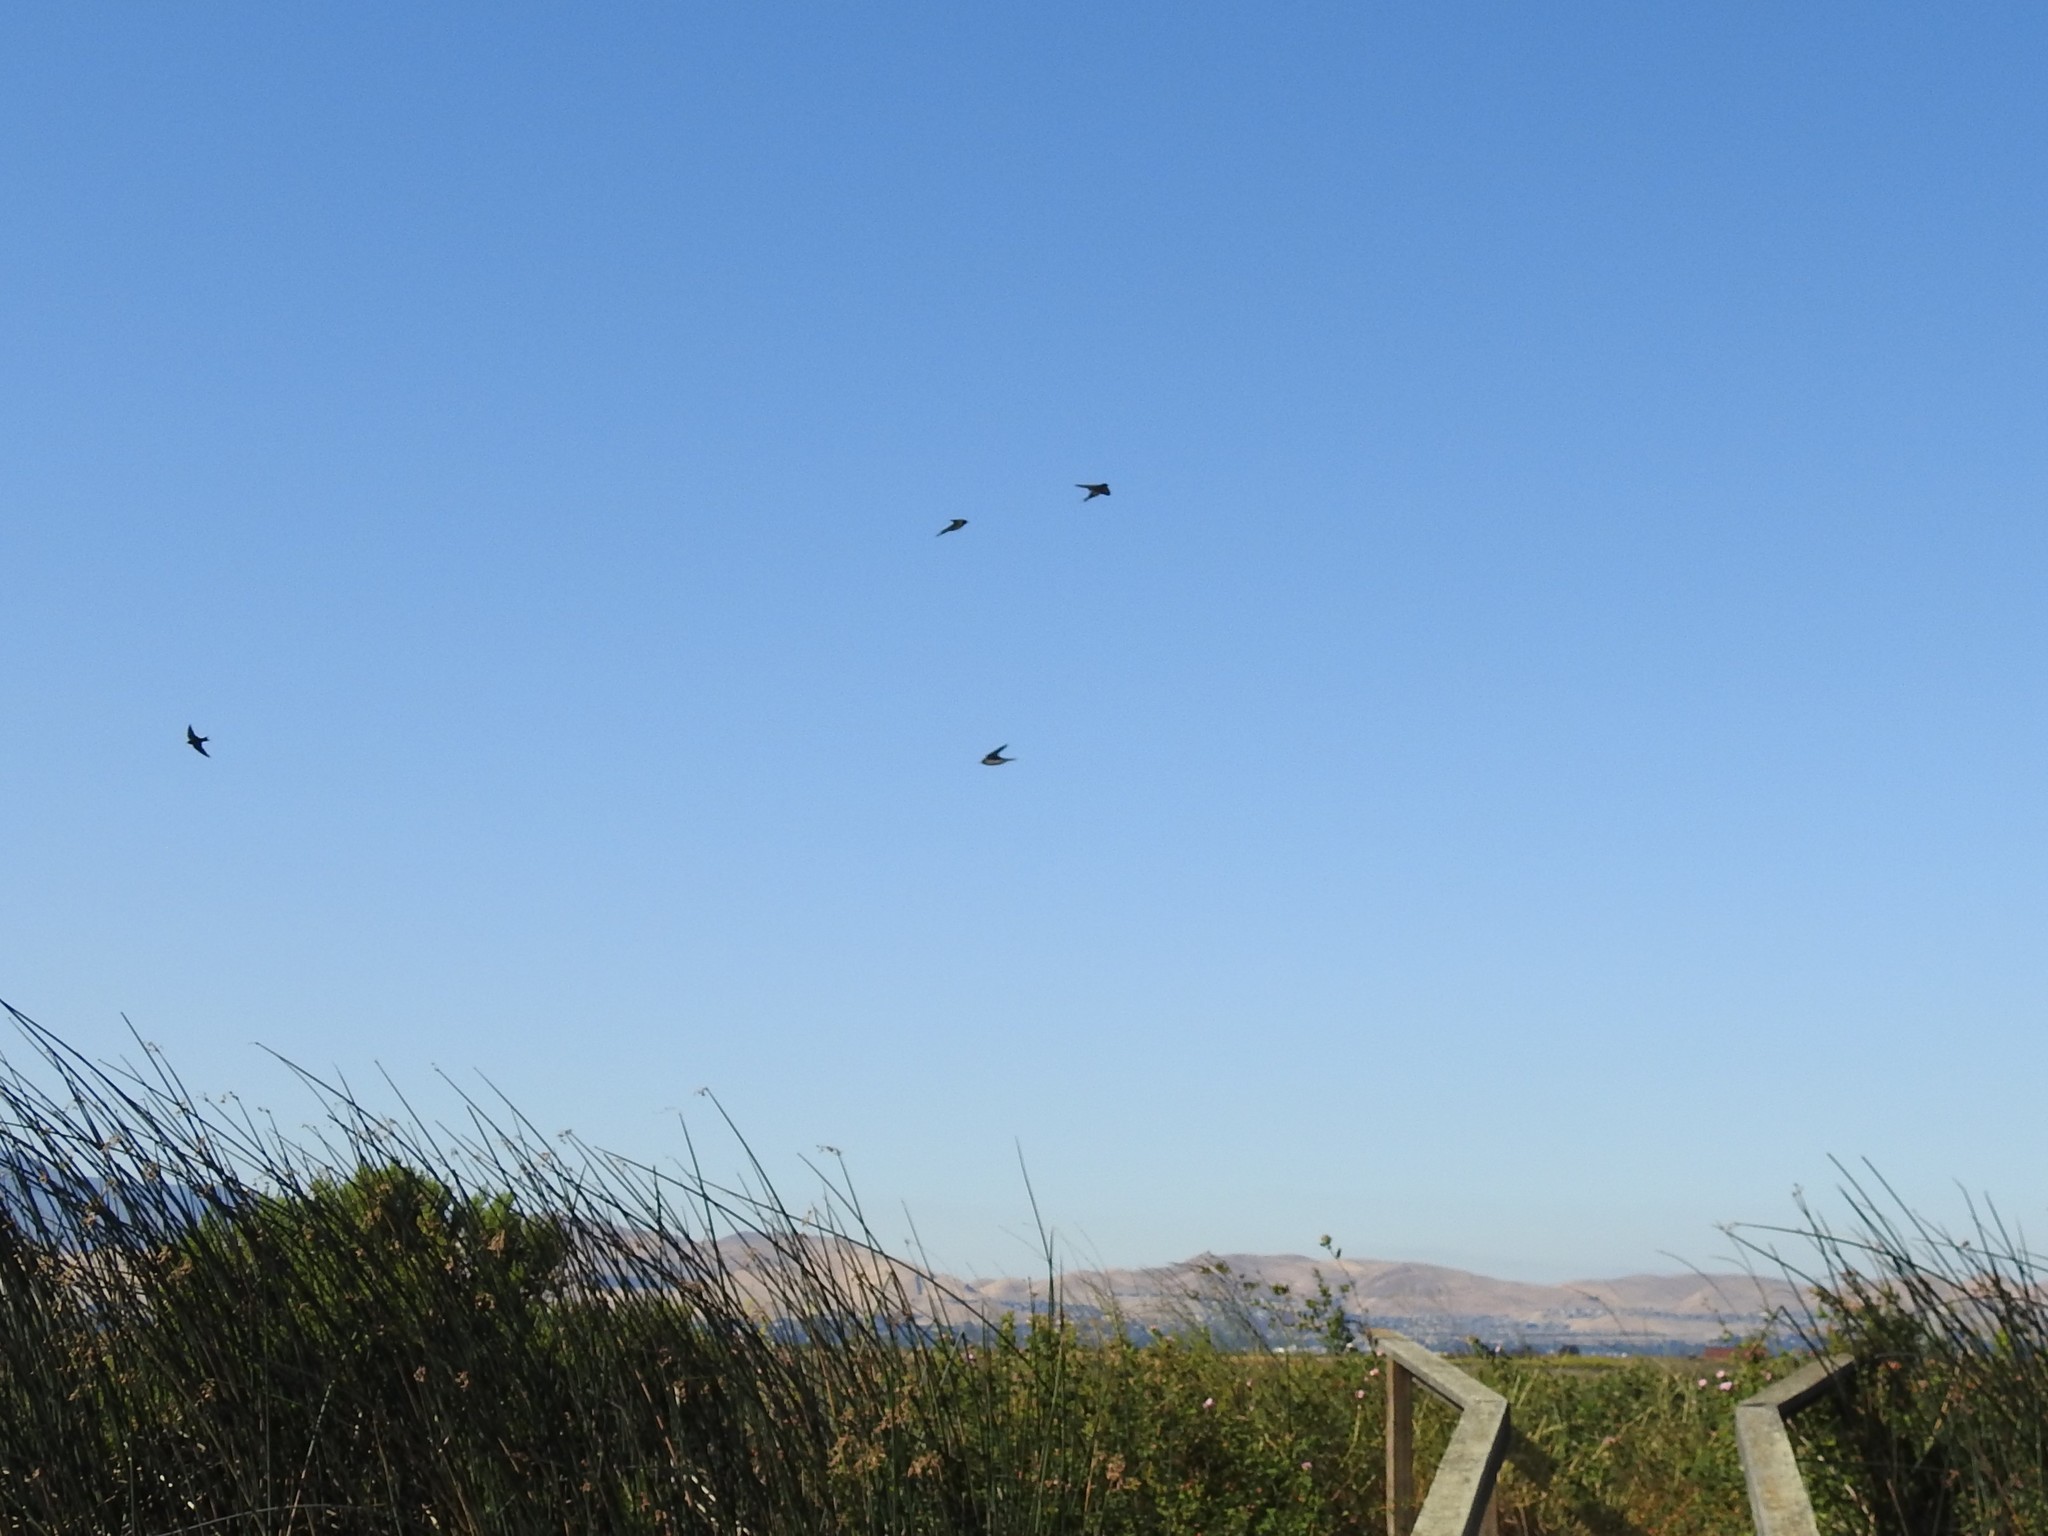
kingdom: Animalia
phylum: Chordata
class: Aves
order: Passeriformes
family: Hirundinidae
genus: Hirundo
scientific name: Hirundo rustica
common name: Barn swallow
